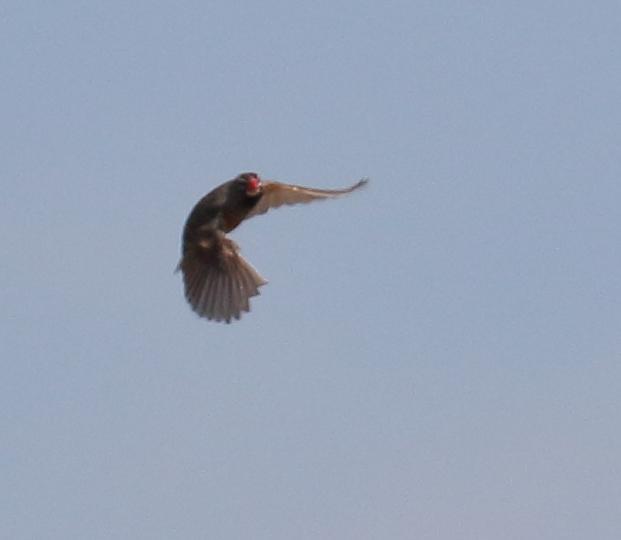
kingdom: Animalia
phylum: Chordata
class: Aves
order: Passeriformes
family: Estrildidae
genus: Ortygospiza
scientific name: Ortygospiza atricollis
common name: Quailfinch
